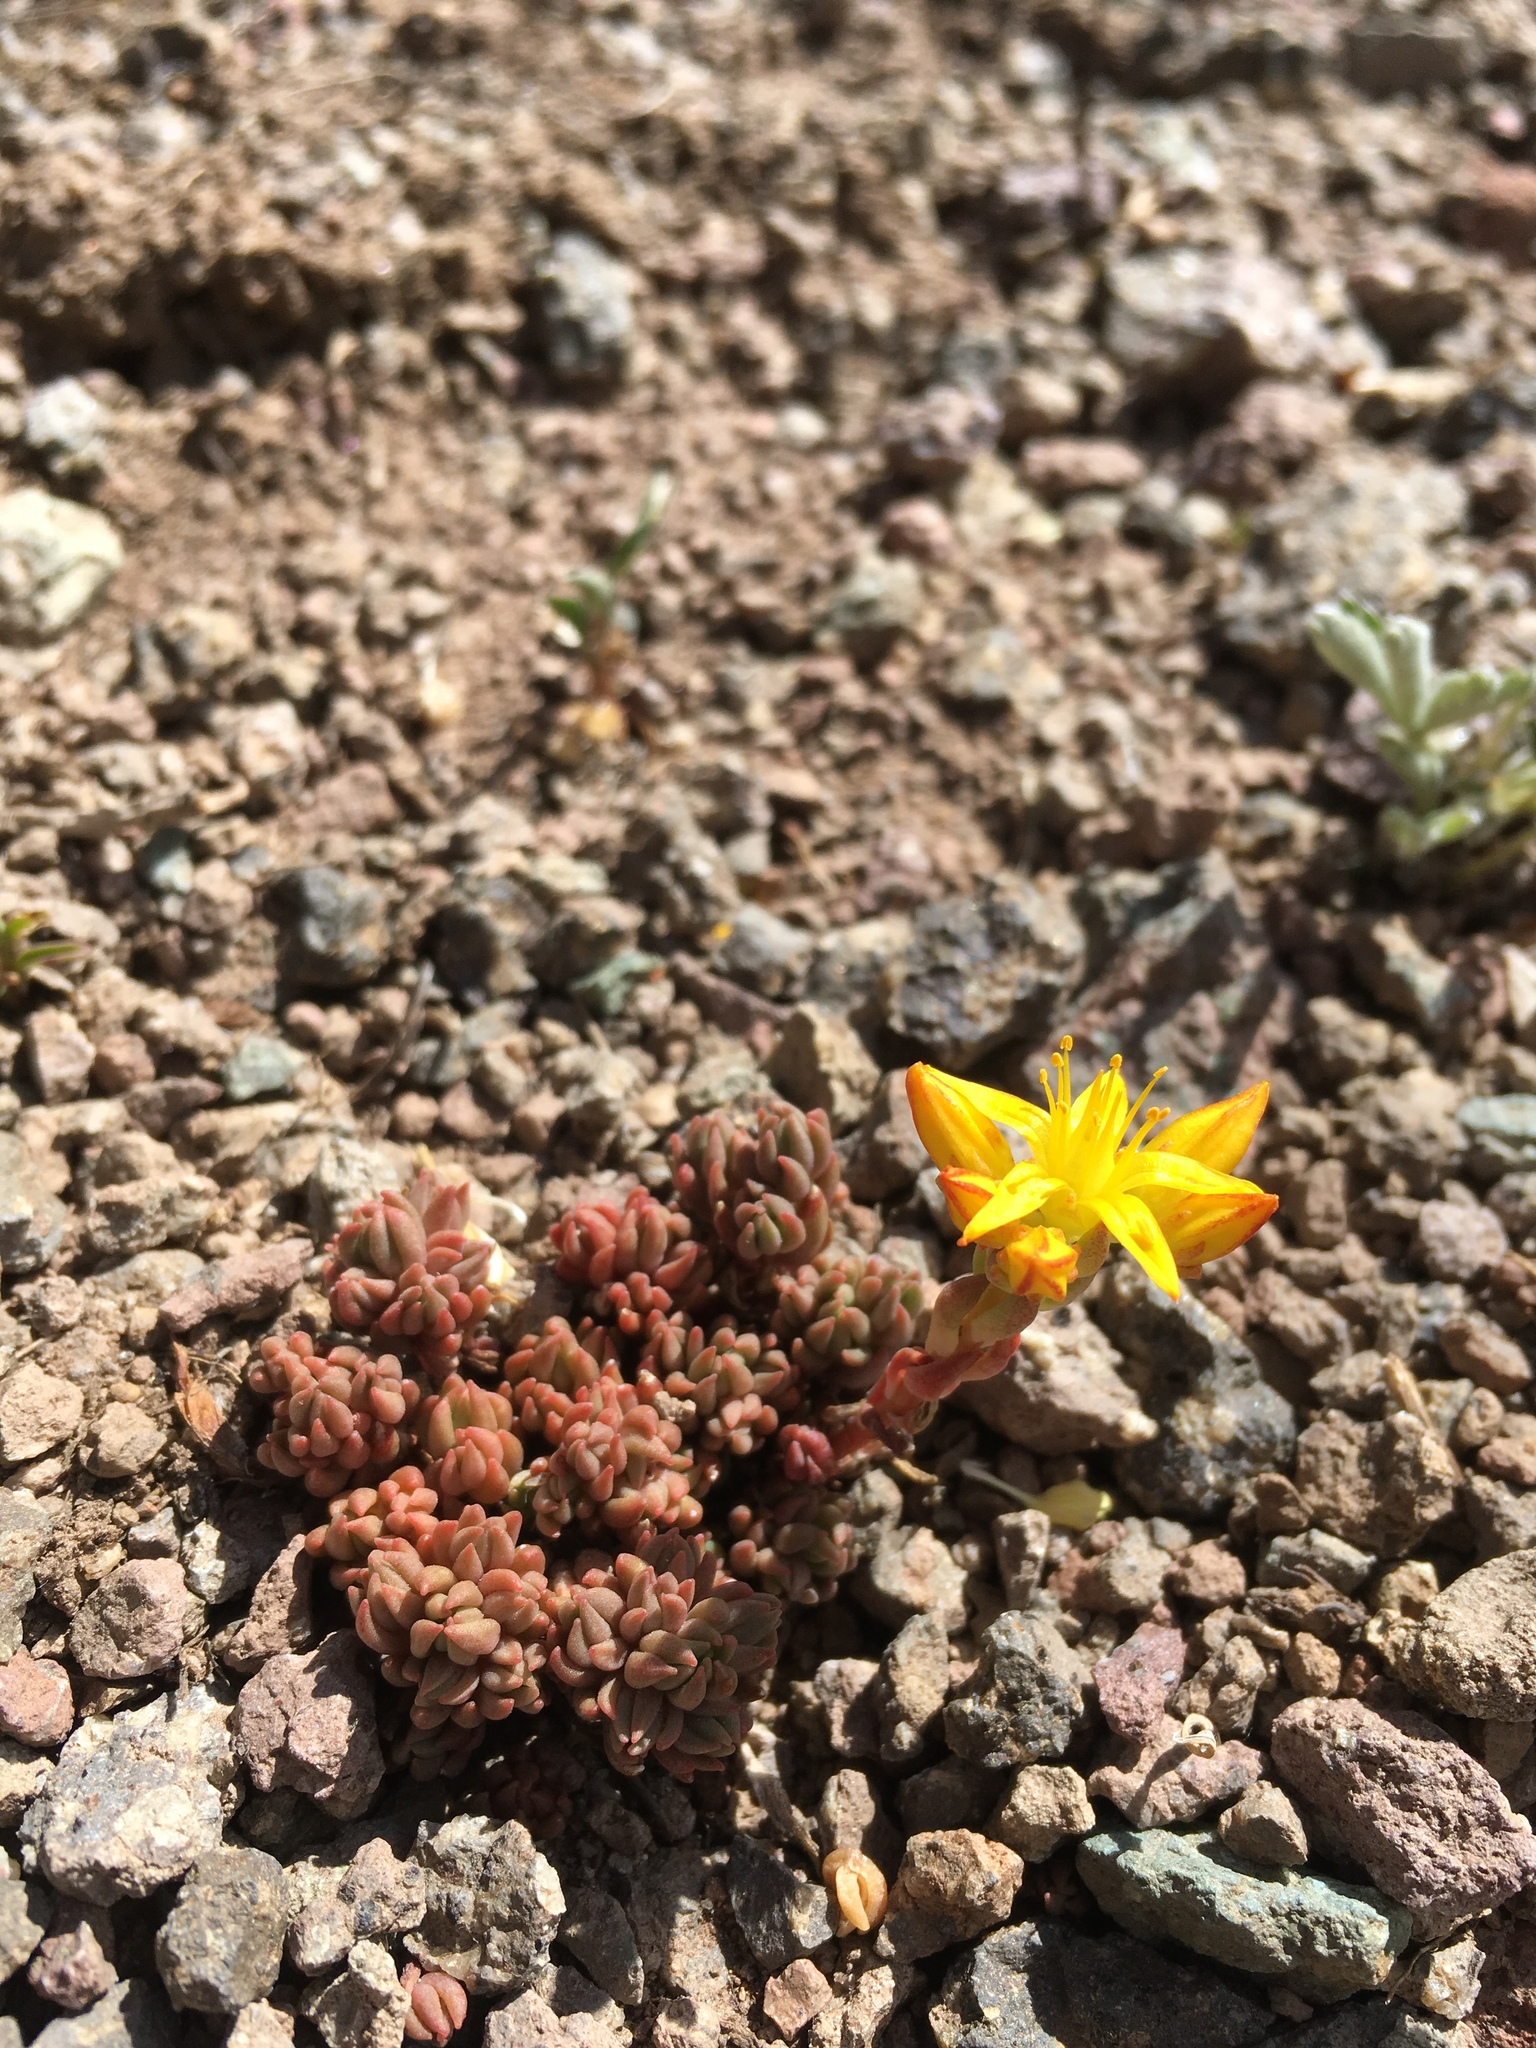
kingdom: Plantae
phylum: Tracheophyta
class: Magnoliopsida
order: Saxifragales
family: Crassulaceae
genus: Sedum
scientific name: Sedum lanceolatum
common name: Common stonecrop
